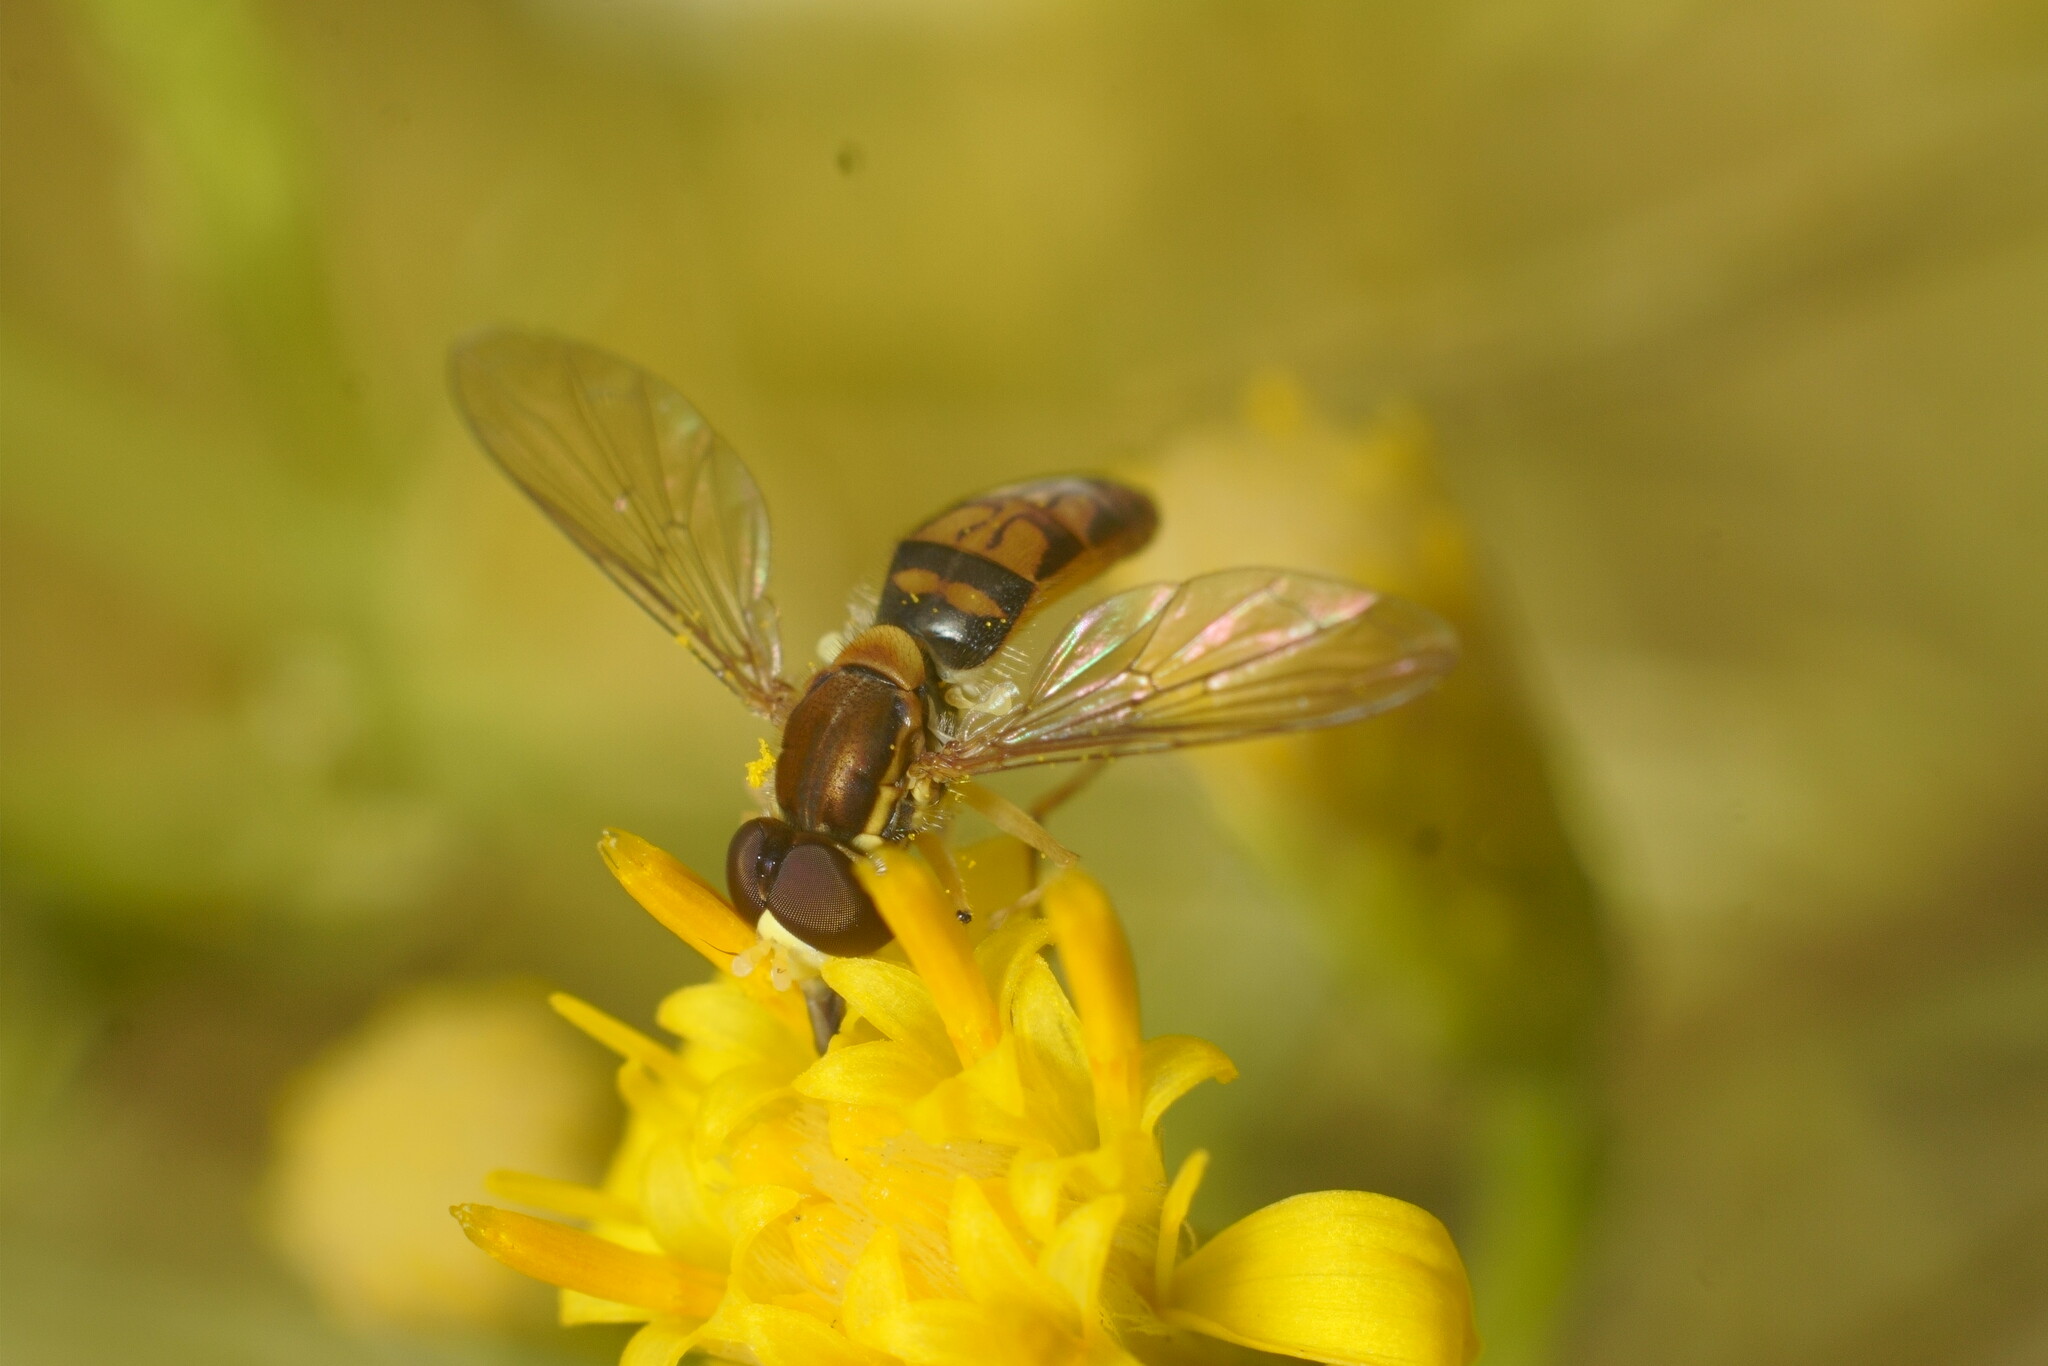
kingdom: Animalia
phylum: Arthropoda
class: Insecta
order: Diptera
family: Syrphidae
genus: Toxomerus
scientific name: Toxomerus marginatus
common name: Syrphid fly
